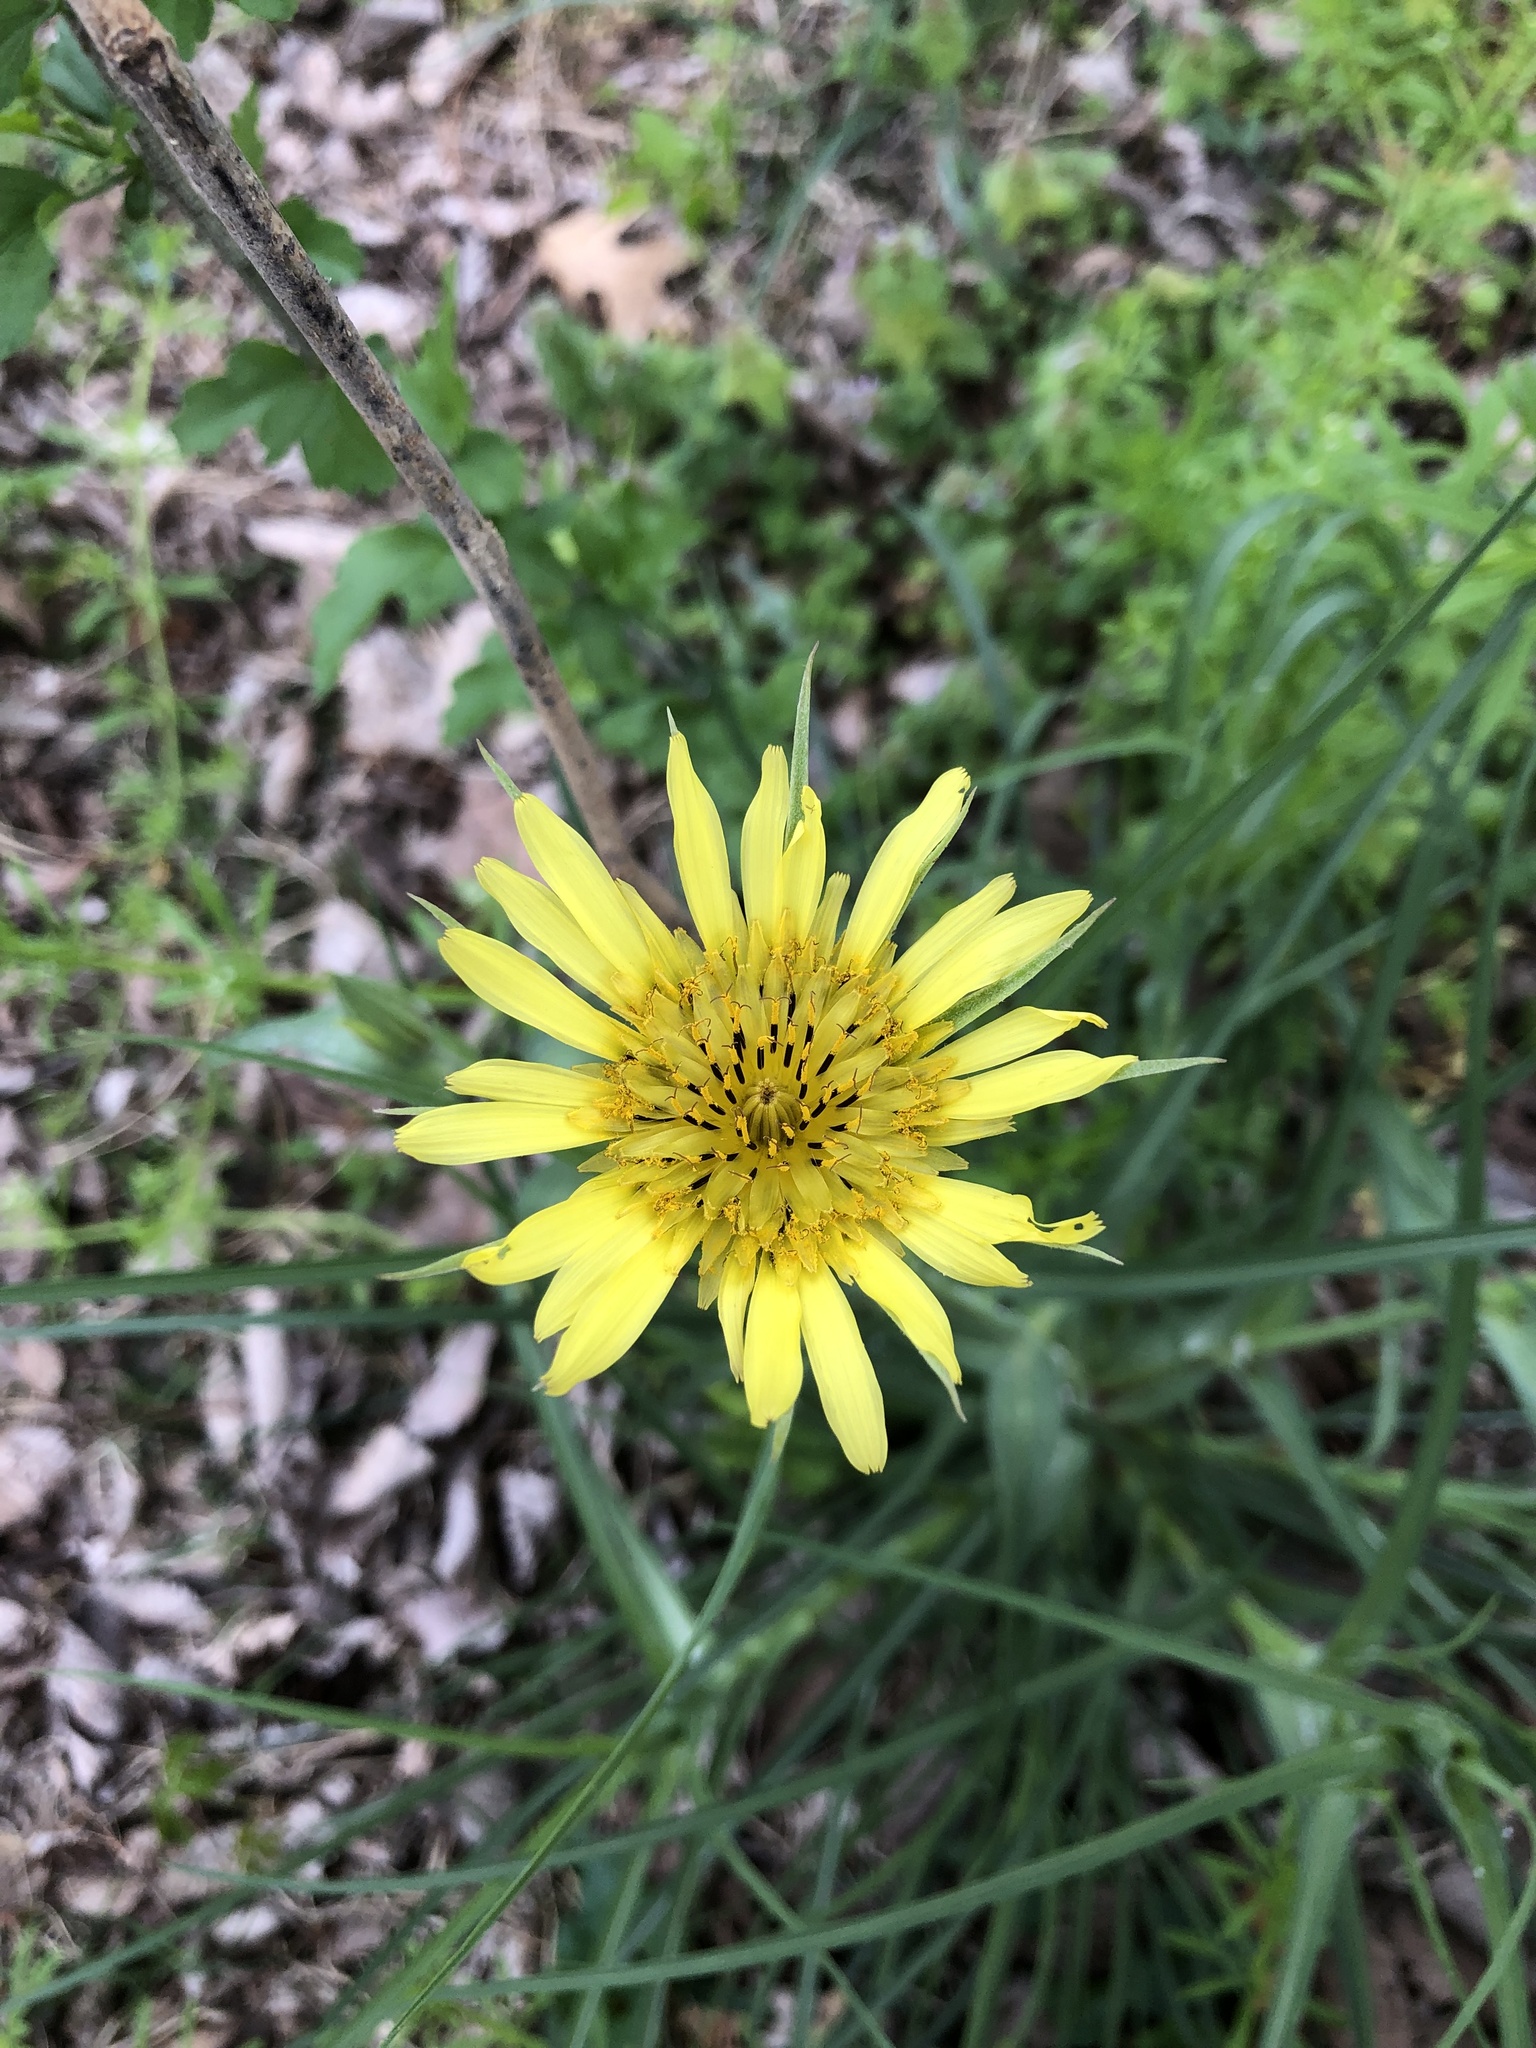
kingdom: Plantae
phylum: Tracheophyta
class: Magnoliopsida
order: Asterales
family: Asteraceae
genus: Tragopogon
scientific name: Tragopogon dubius
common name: Yellow salsify
